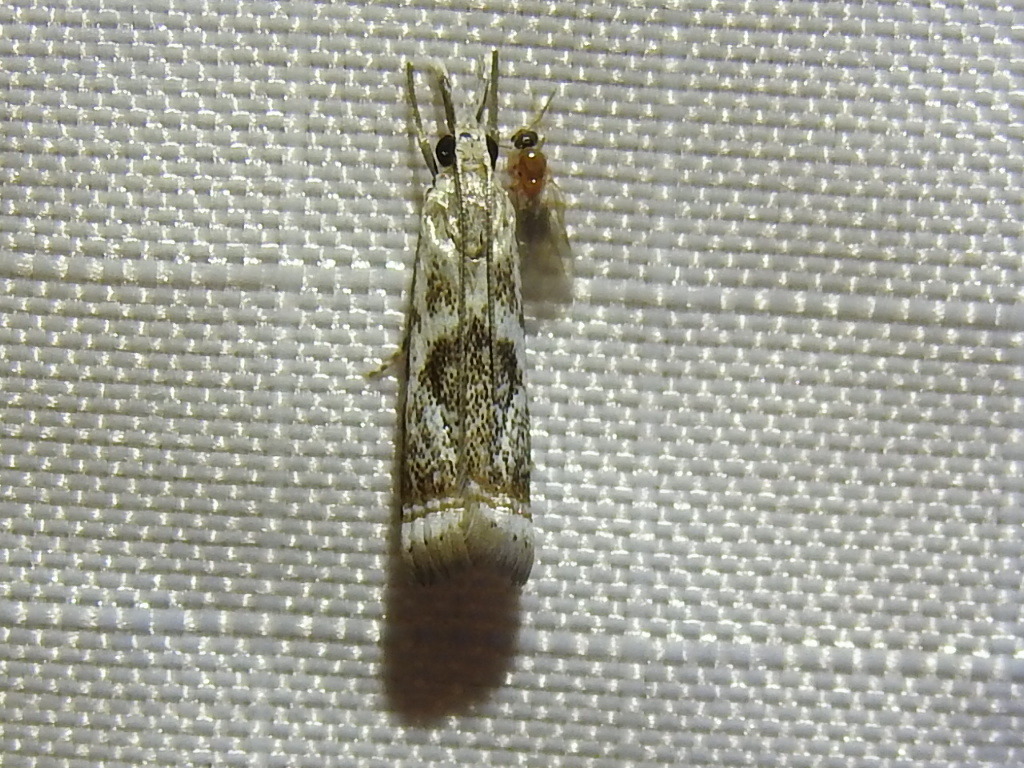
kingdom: Animalia
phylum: Arthropoda
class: Insecta
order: Lepidoptera
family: Crambidae
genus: Microcrambus
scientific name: Microcrambus elegans
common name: Elegant grass-veneer
